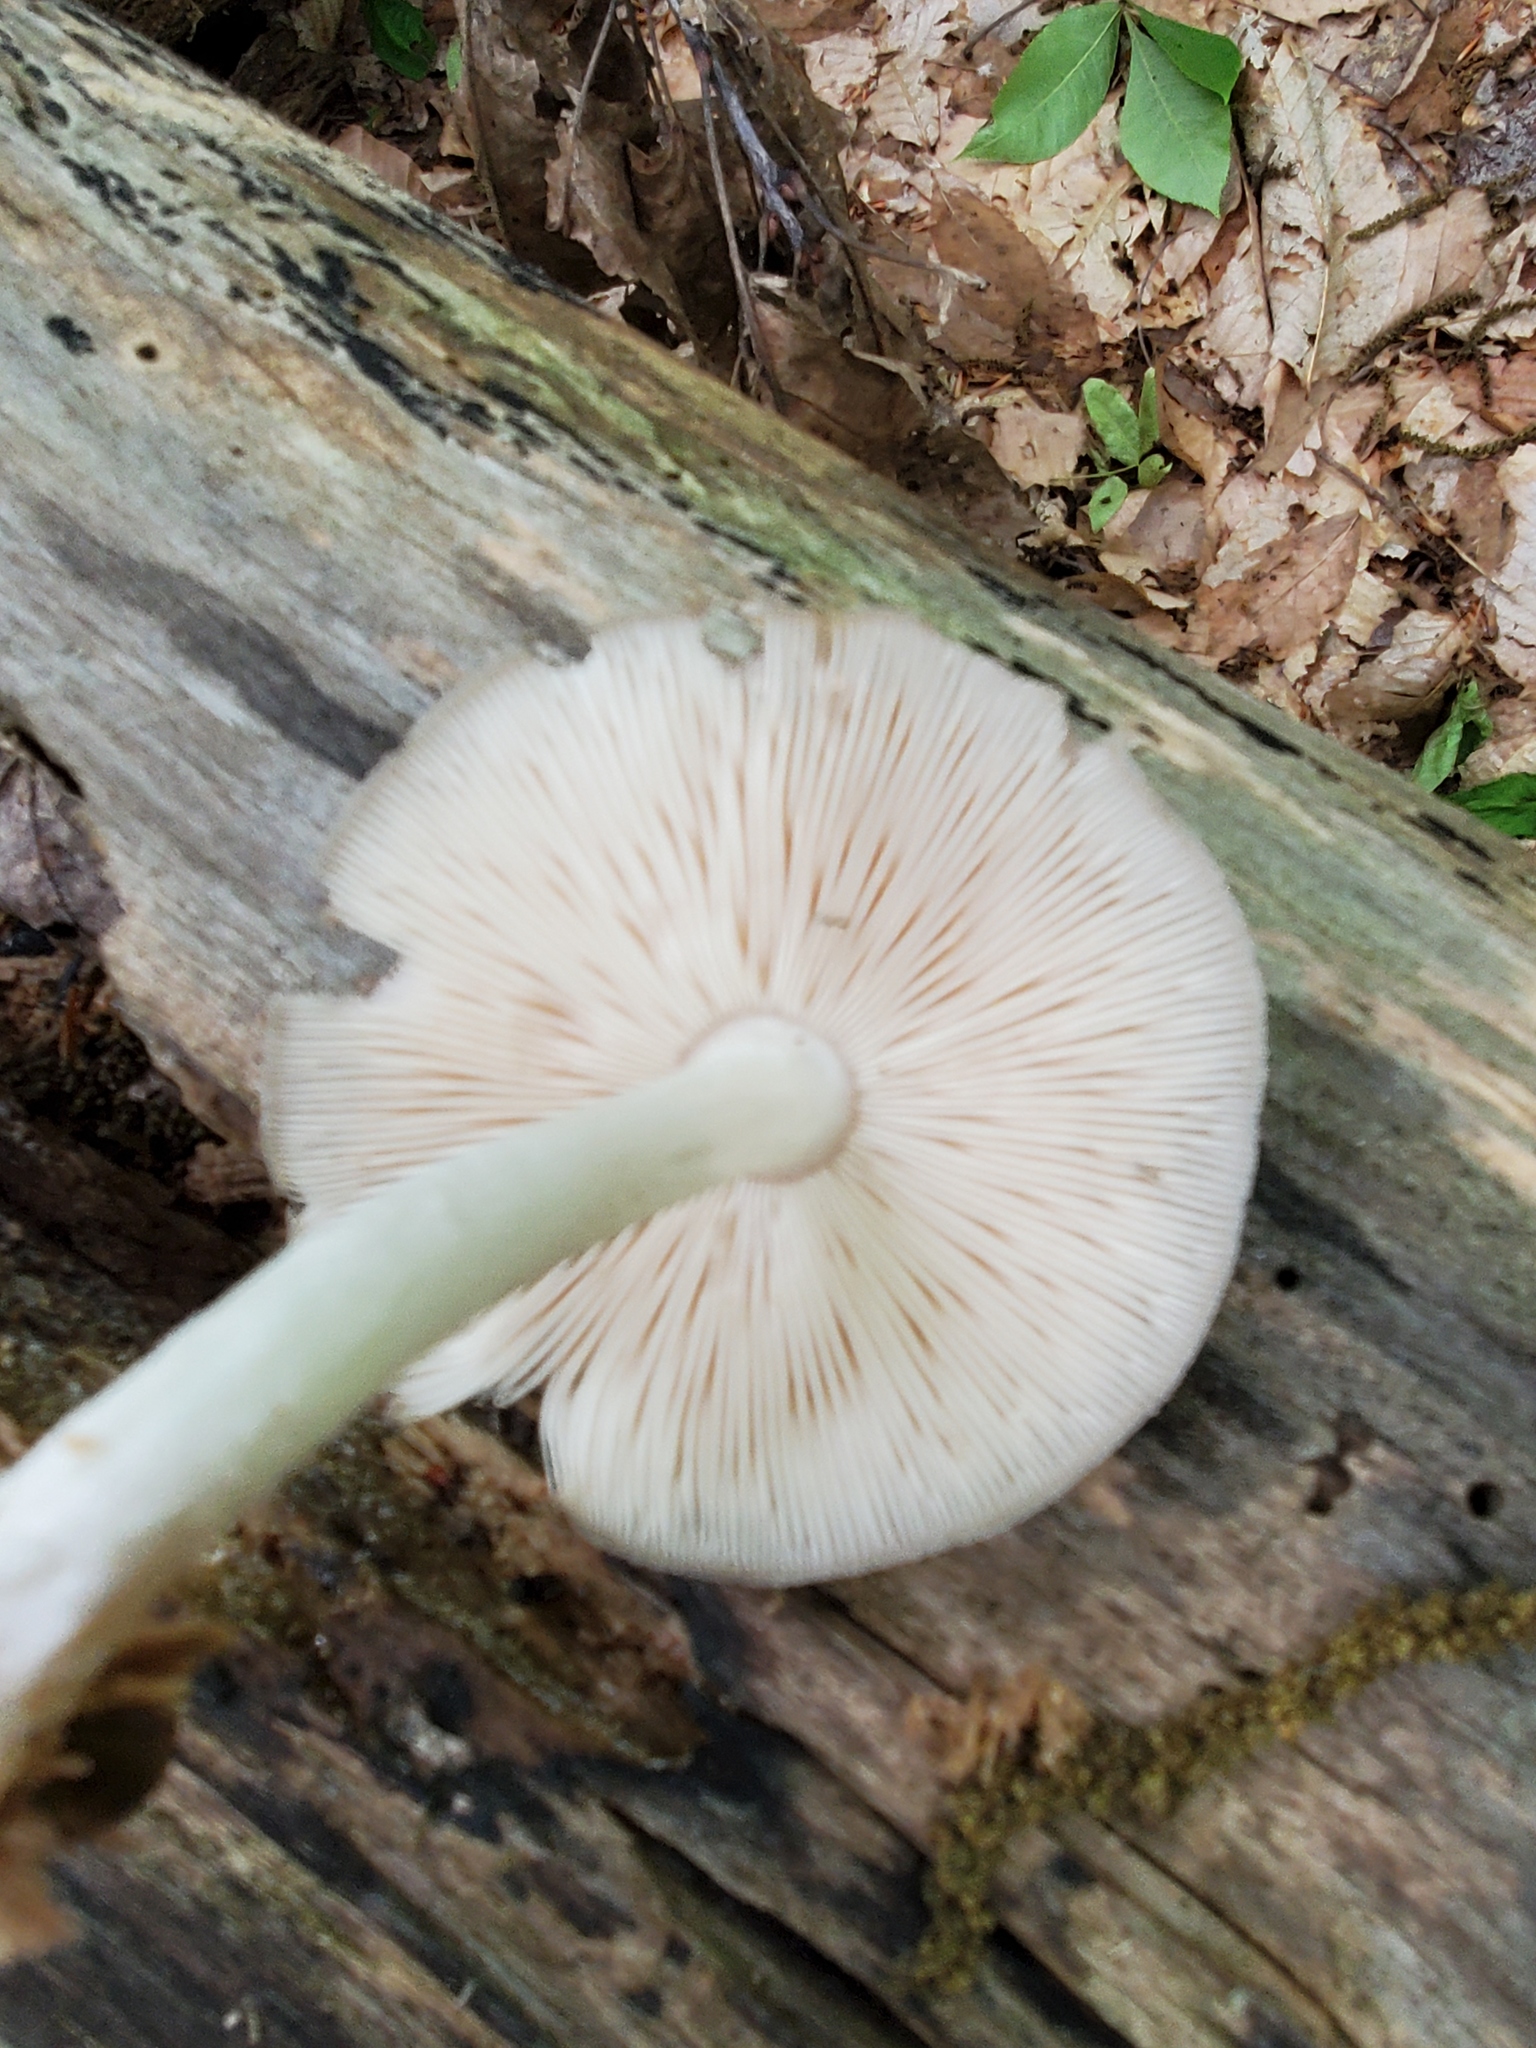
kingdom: Fungi
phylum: Basidiomycota
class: Agaricomycetes
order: Agaricales
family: Pluteaceae
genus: Pluteus
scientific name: Pluteus cervinus
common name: Deer shield
